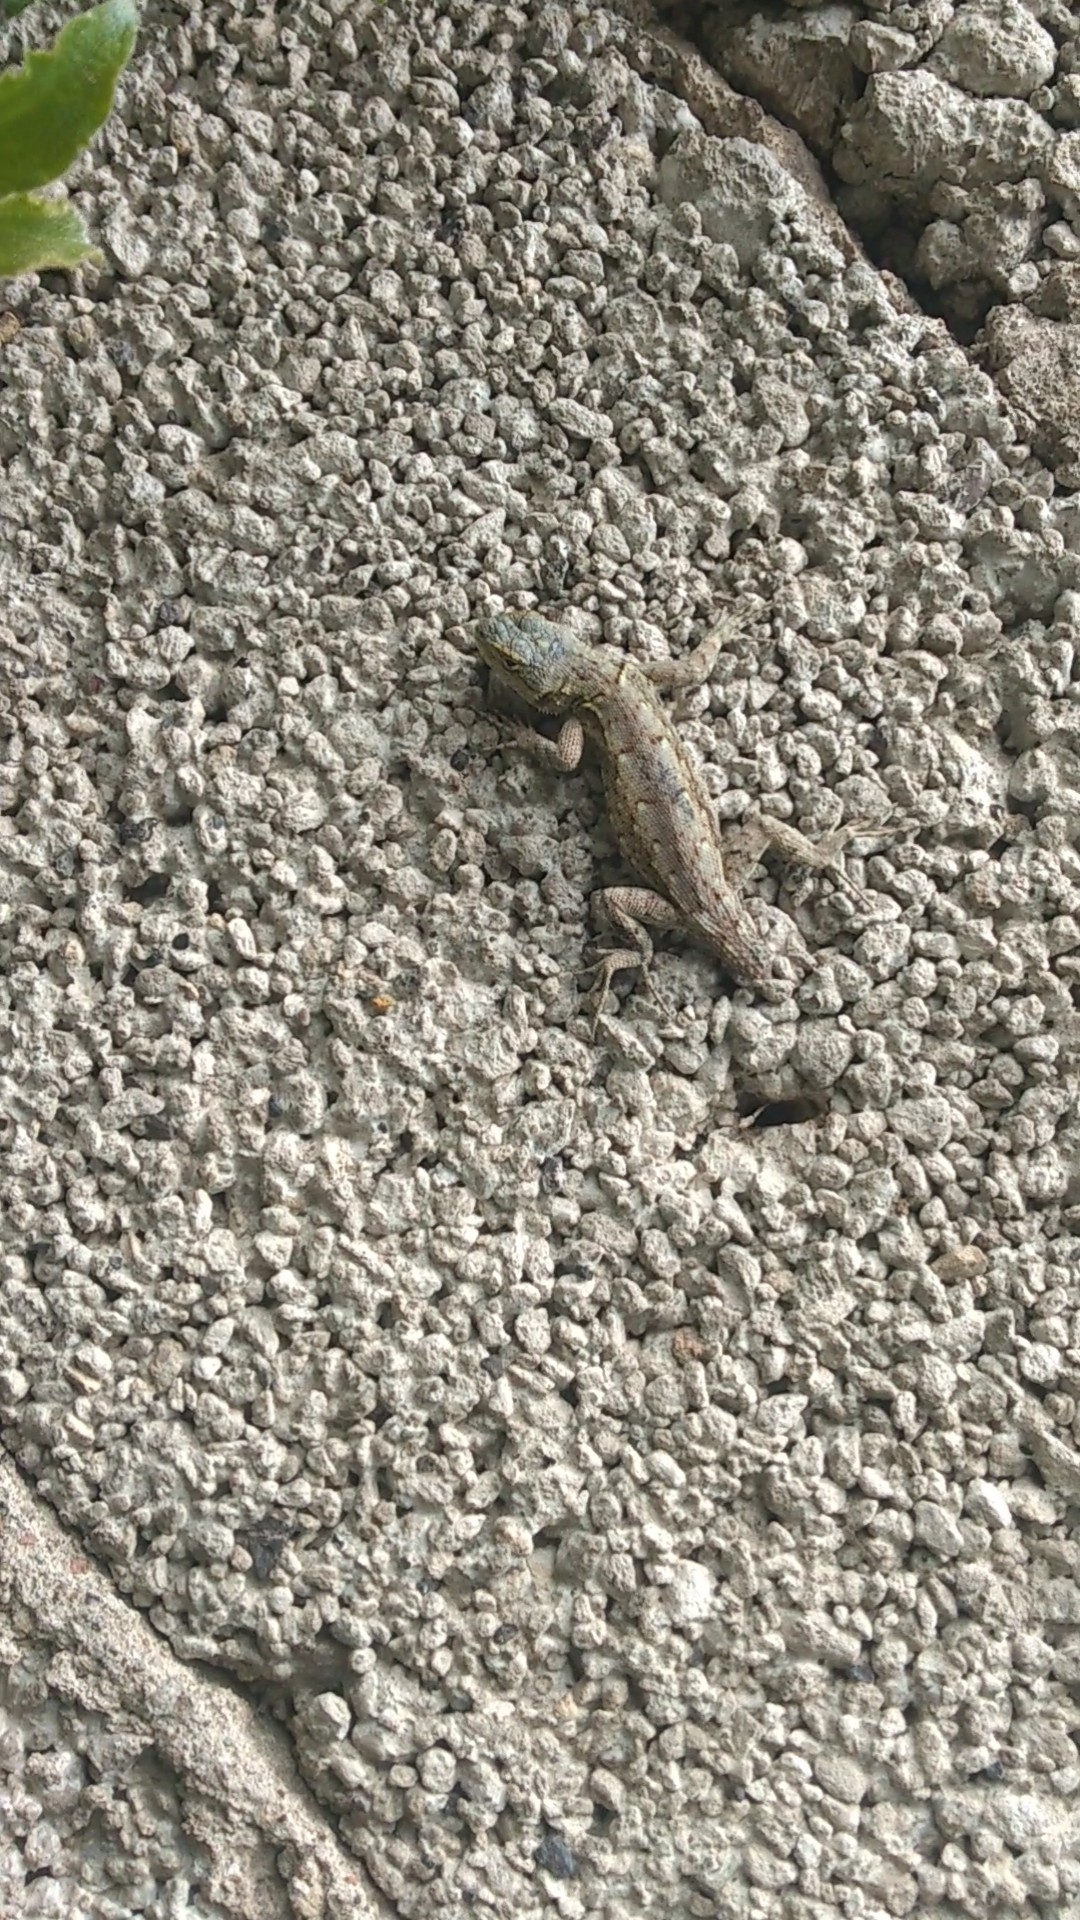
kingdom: Animalia
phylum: Chordata
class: Squamata
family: Phrynosomatidae
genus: Sceloporus
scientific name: Sceloporus grammicus
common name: Mesquite lizard
